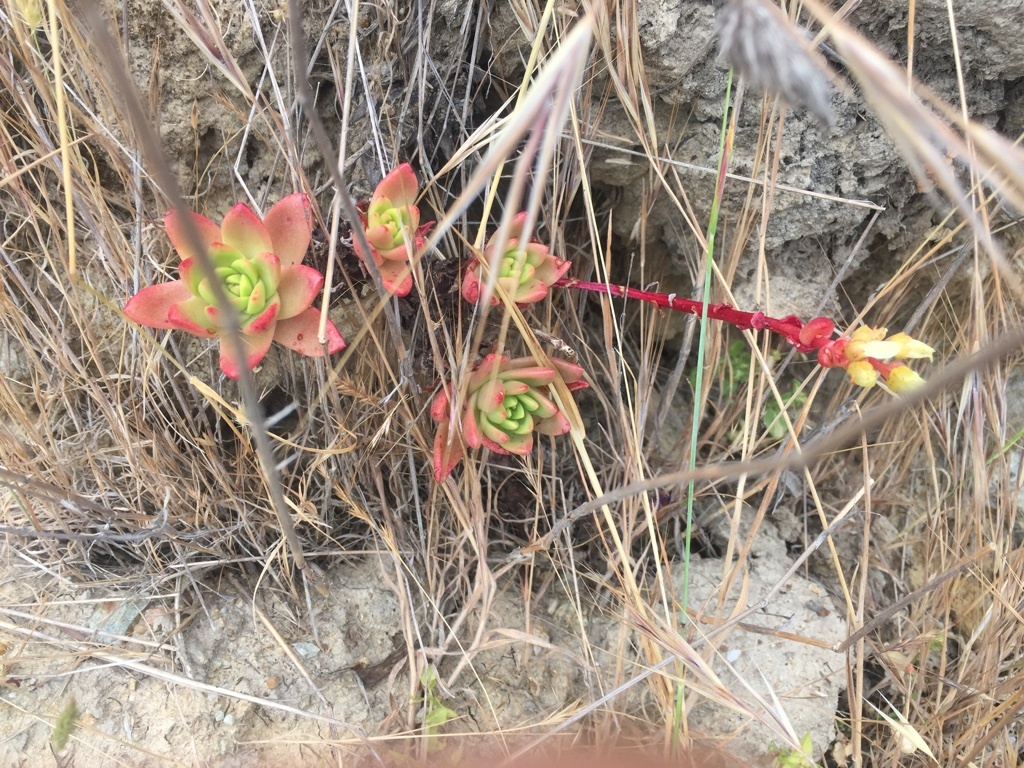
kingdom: Plantae
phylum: Tracheophyta
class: Magnoliopsida
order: Saxifragales
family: Crassulaceae
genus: Dudleya
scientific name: Dudleya farinosa
